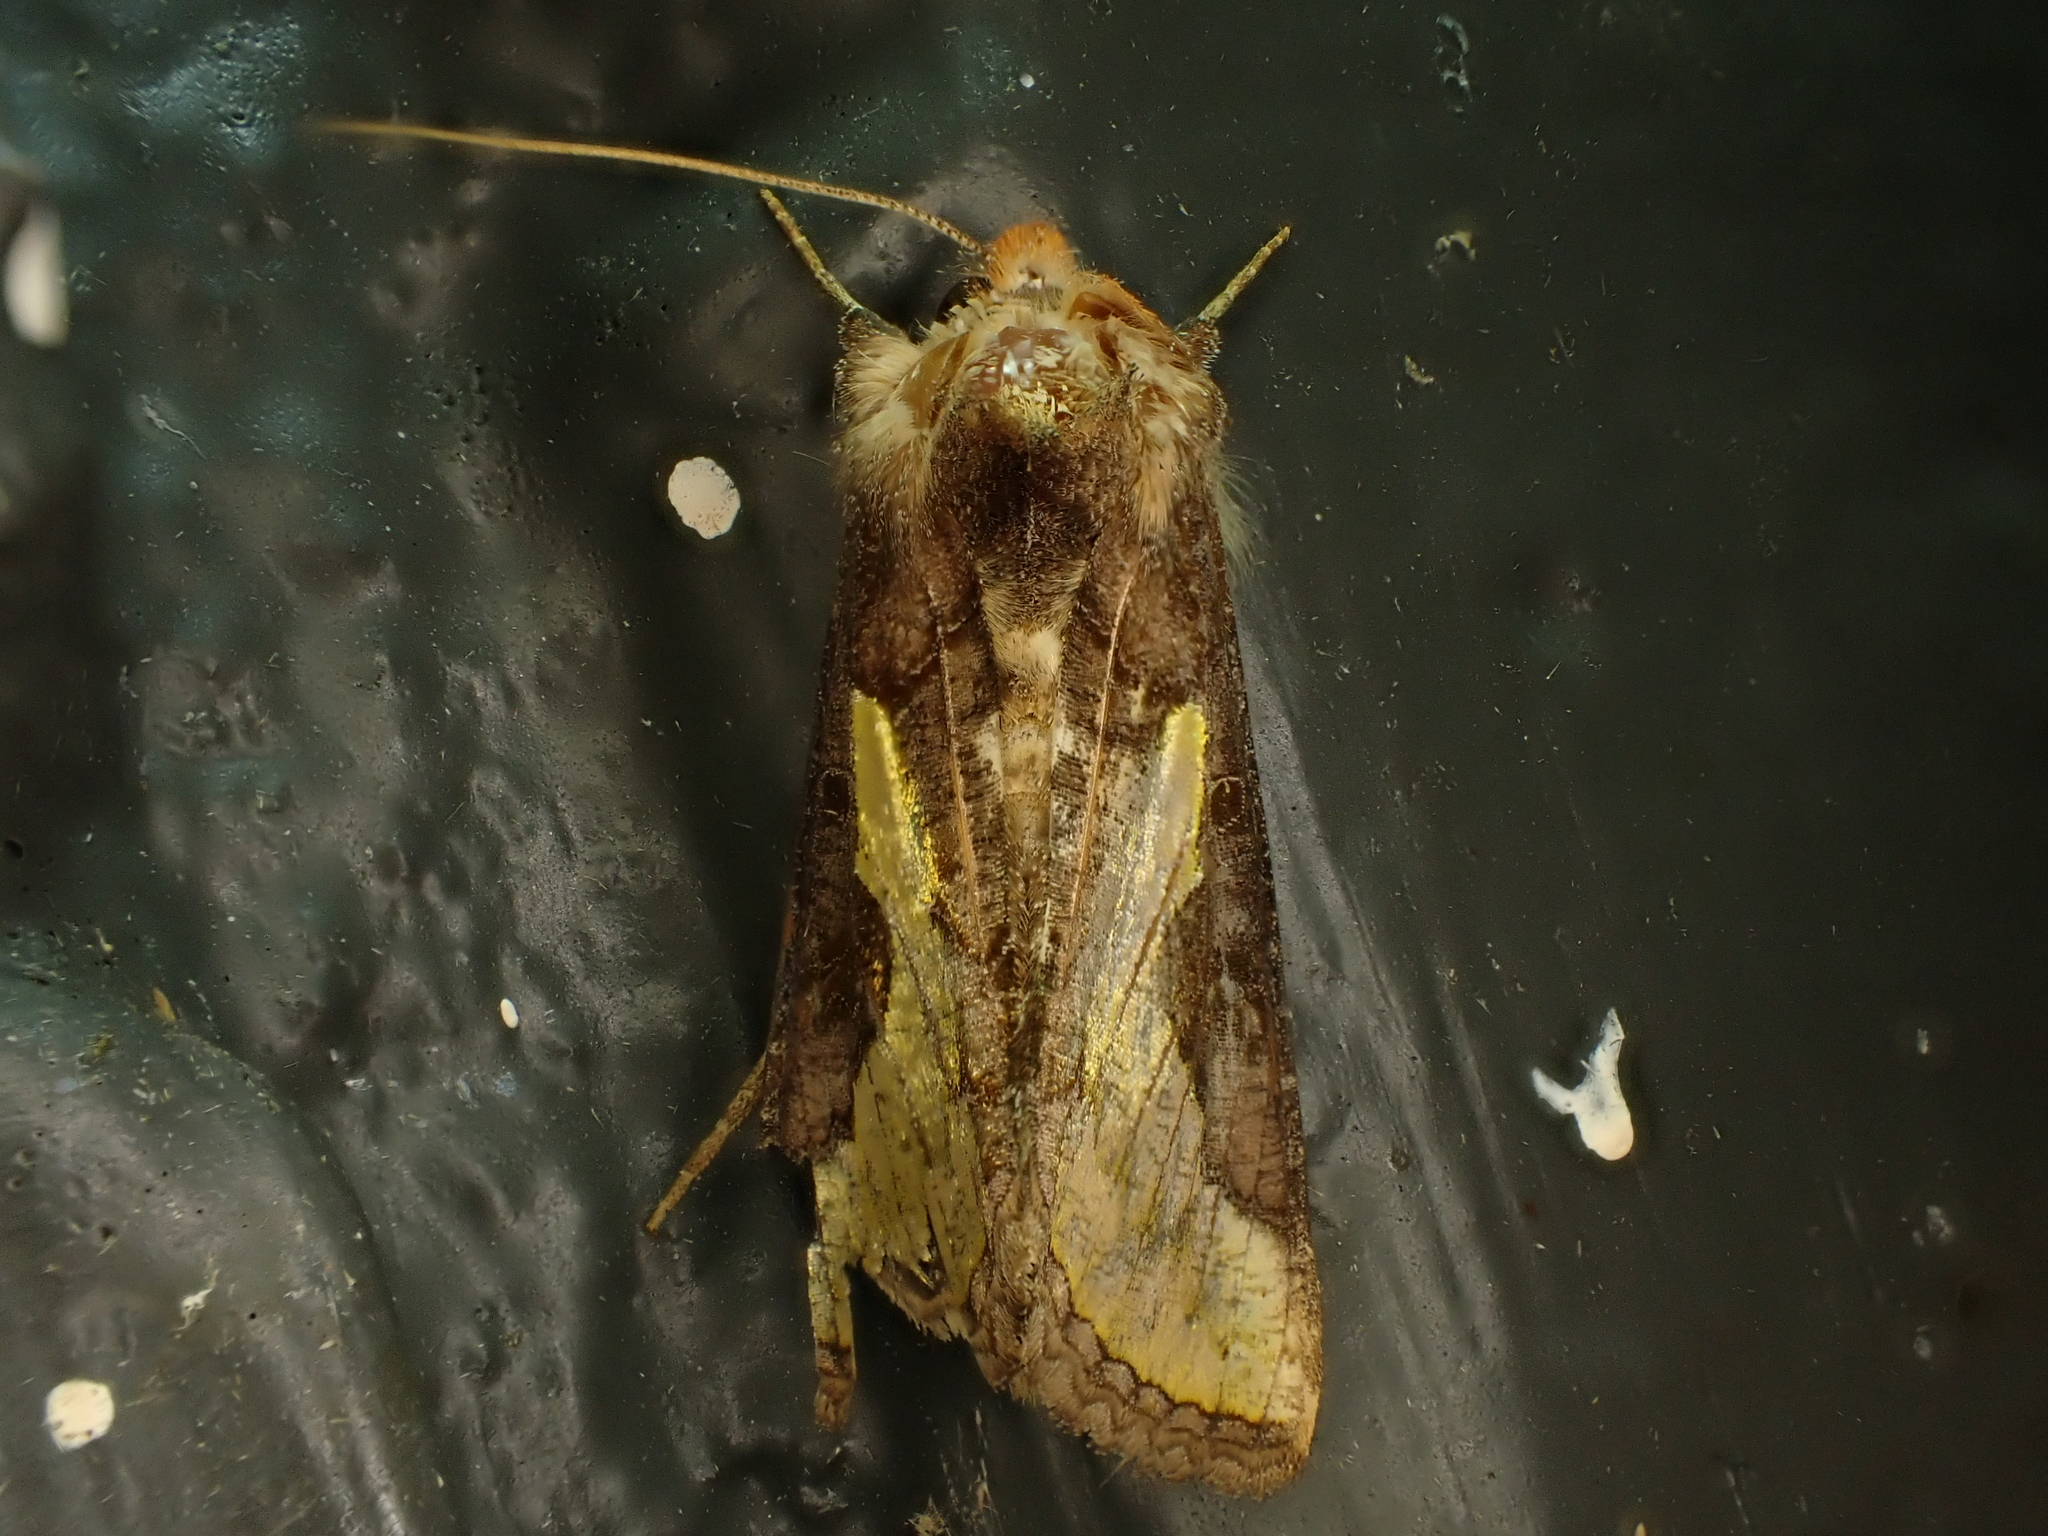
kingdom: Animalia
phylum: Arthropoda
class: Insecta
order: Lepidoptera
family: Noctuidae
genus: Thysanoplusia
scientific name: Thysanoplusia orichalcea
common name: Slender burnished brass, golden plusia
